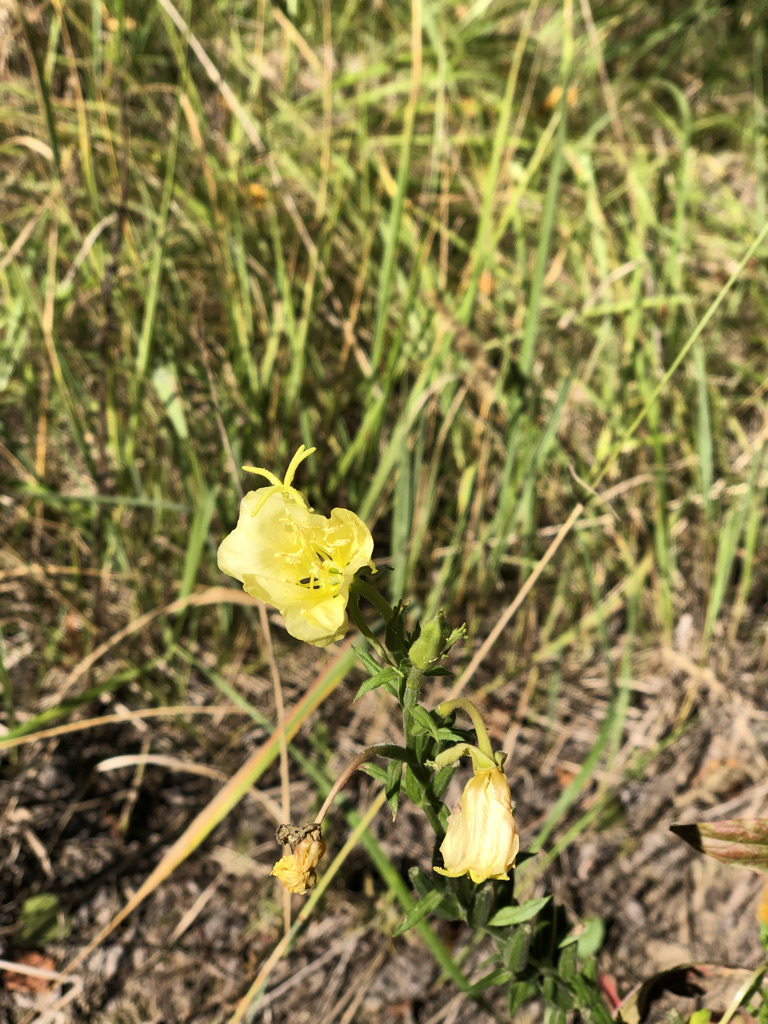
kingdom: Plantae
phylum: Tracheophyta
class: Magnoliopsida
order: Myrtales
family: Onagraceae
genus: Oenothera
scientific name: Oenothera biennis
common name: Common evening-primrose
